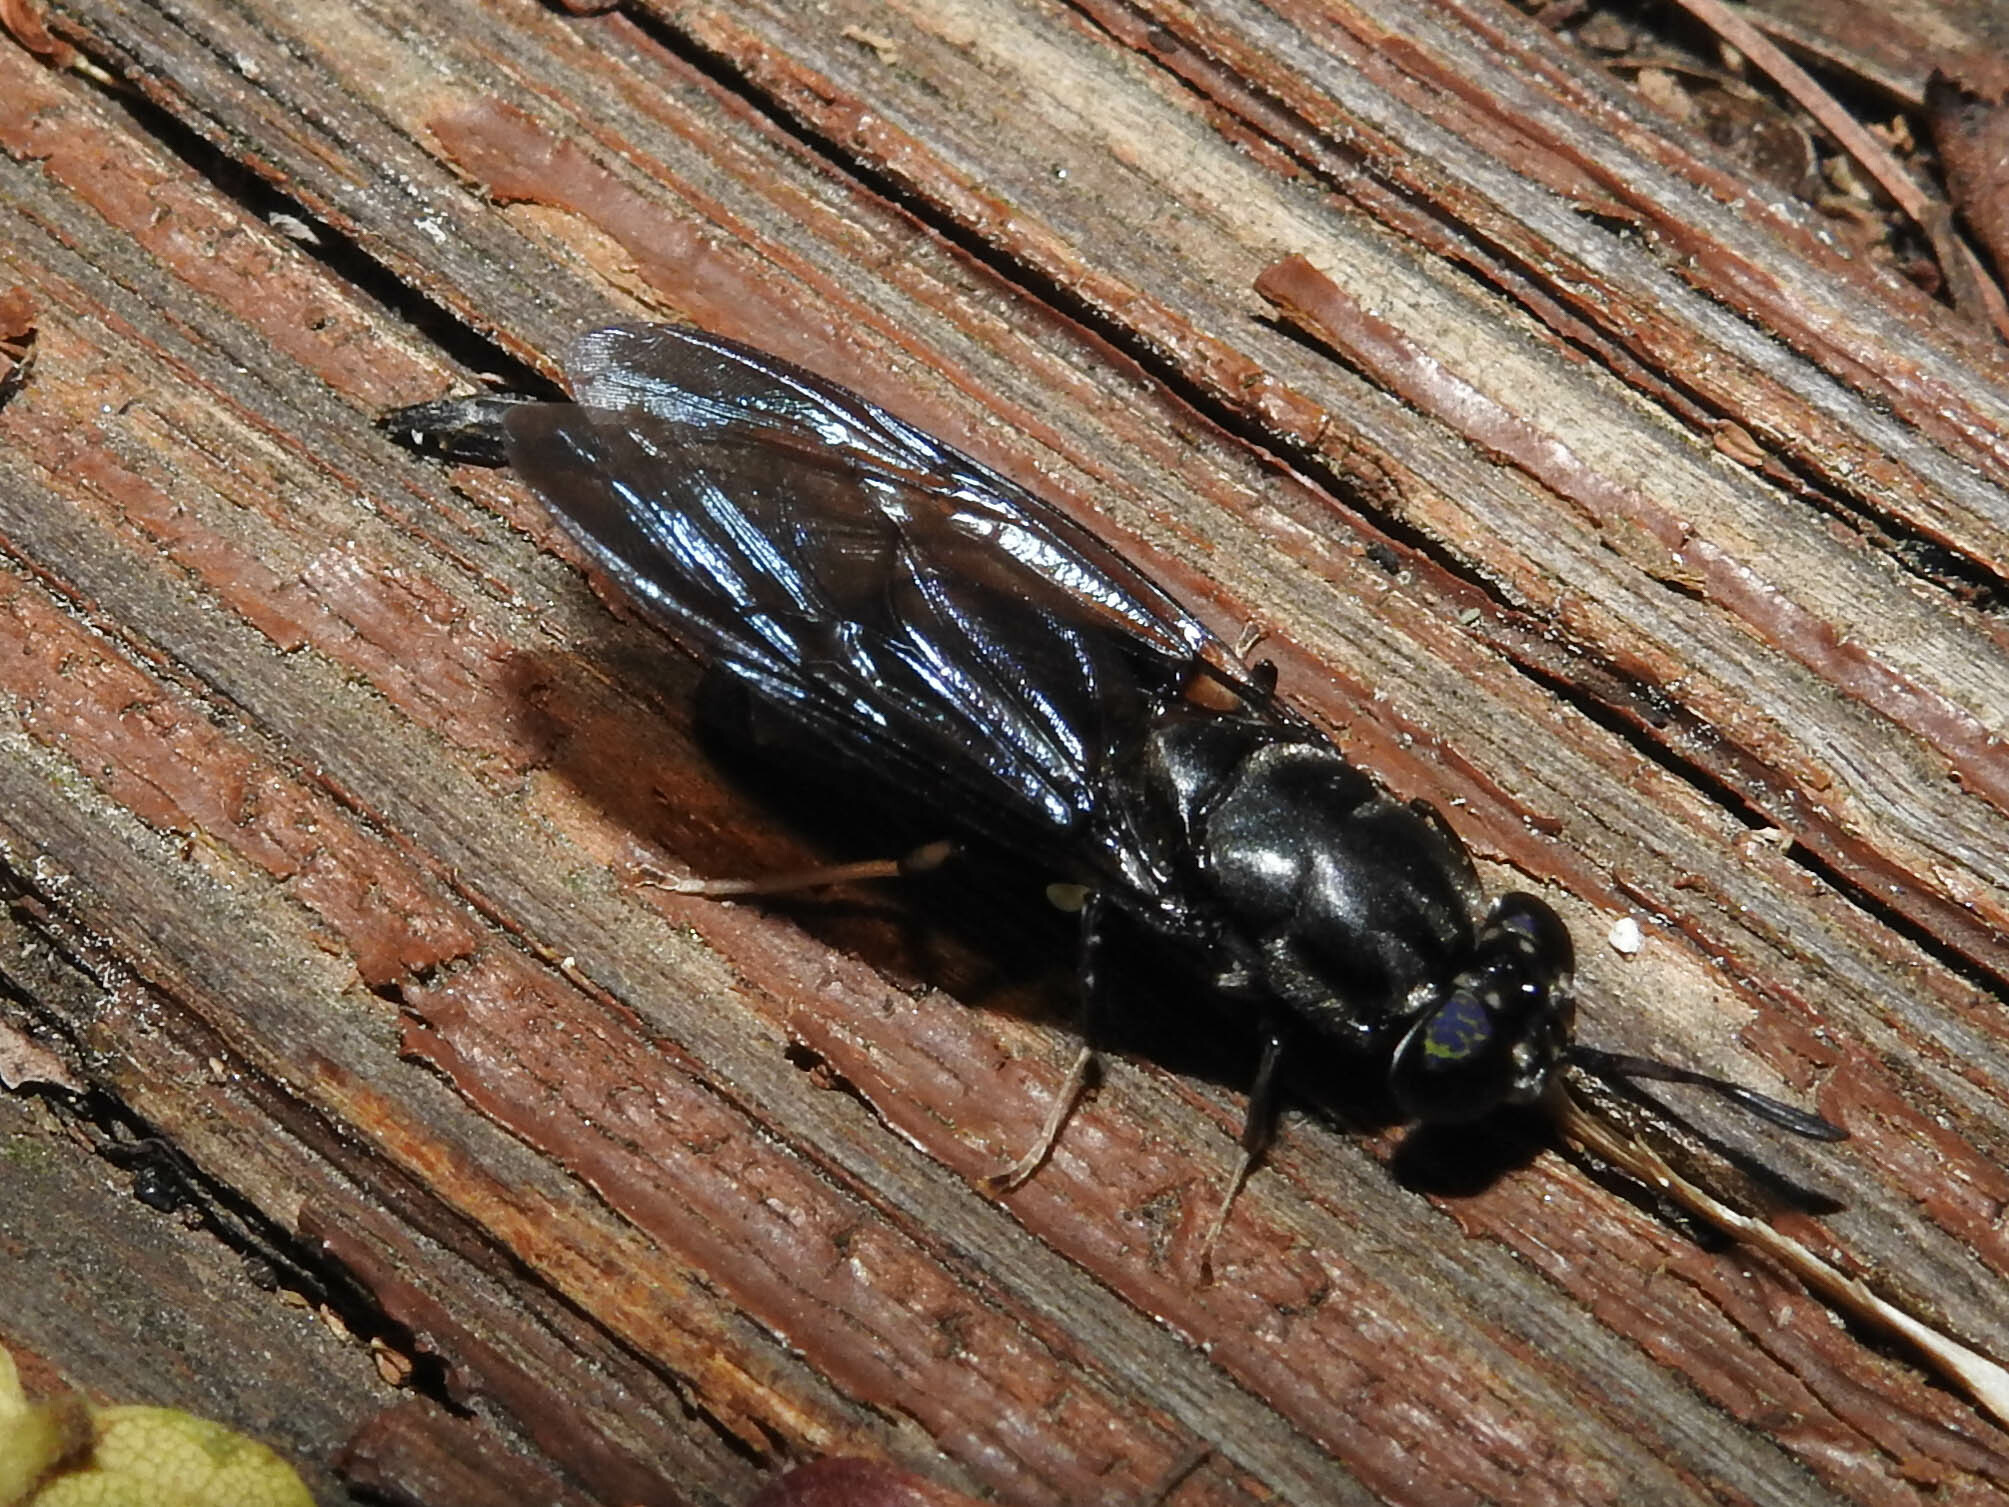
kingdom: Animalia
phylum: Arthropoda
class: Insecta
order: Diptera
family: Stratiomyidae
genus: Hermetia
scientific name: Hermetia illucens
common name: Black soldier fly
